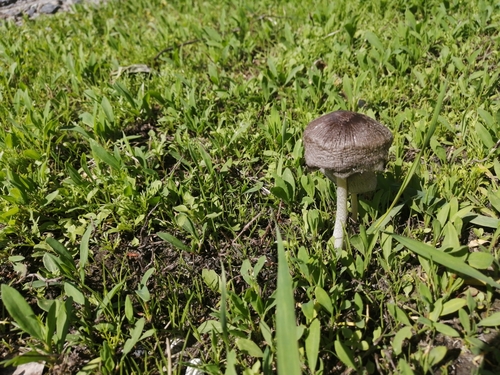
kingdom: Fungi
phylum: Basidiomycota
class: Agaricomycetes
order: Agaricales
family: Agaricaceae
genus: Coprinus
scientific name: Coprinus
